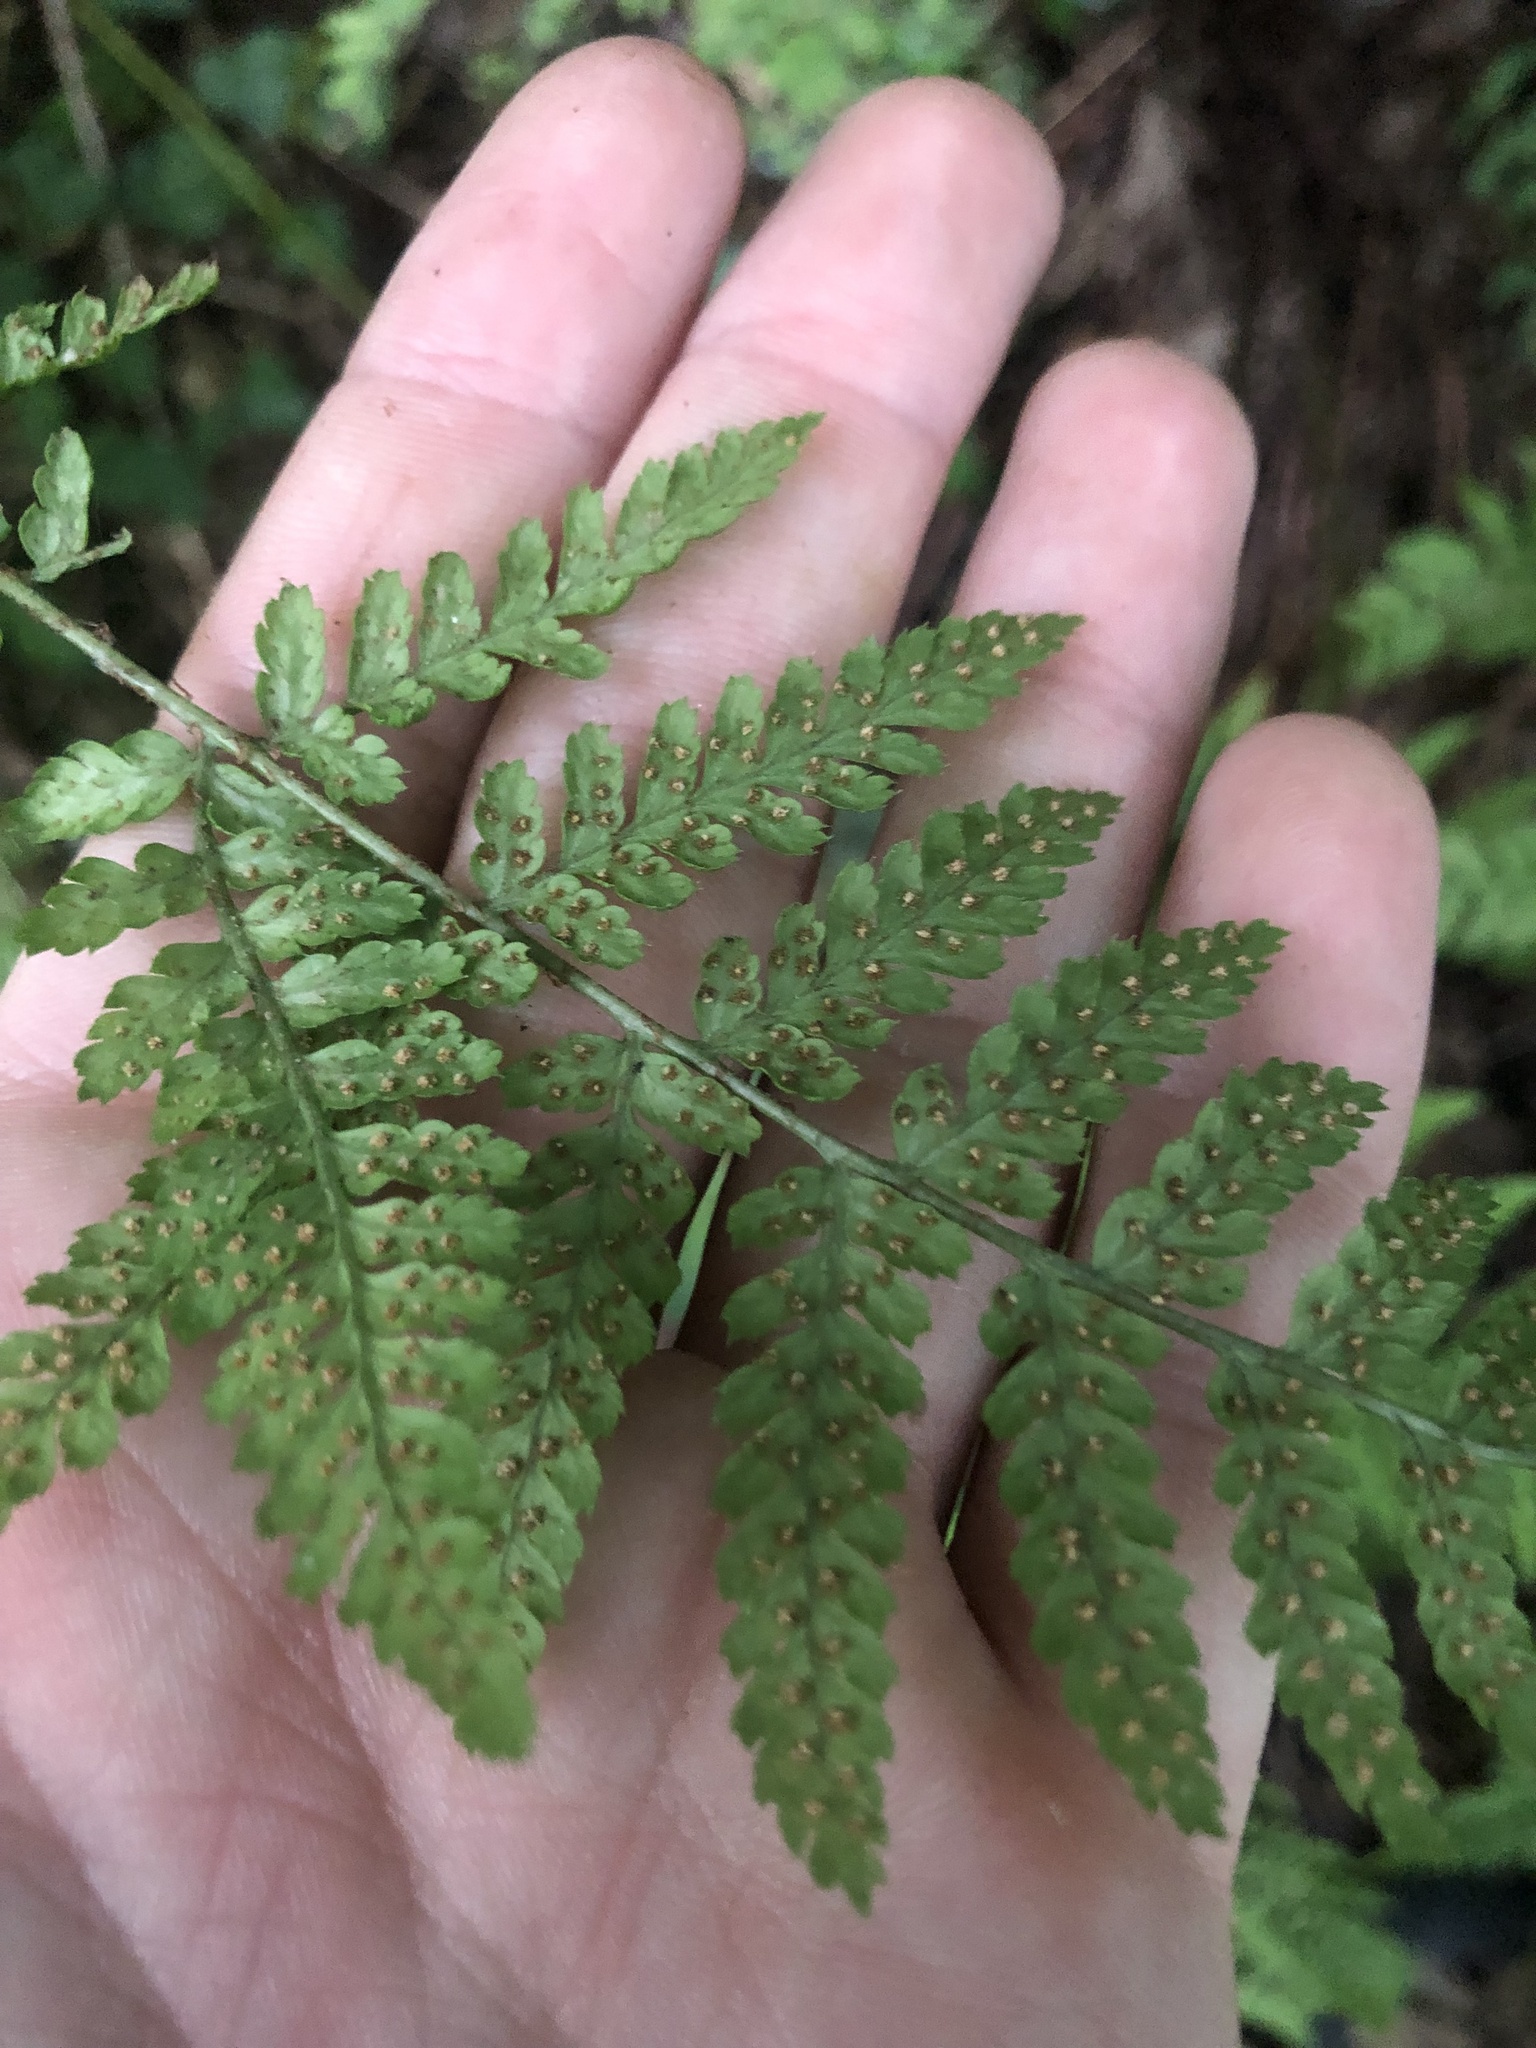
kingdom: Plantae
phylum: Tracheophyta
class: Polypodiopsida
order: Polypodiales
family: Dryopteridaceae
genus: Dryopteris
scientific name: Dryopteris dilatata
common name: Broad buckler-fern
